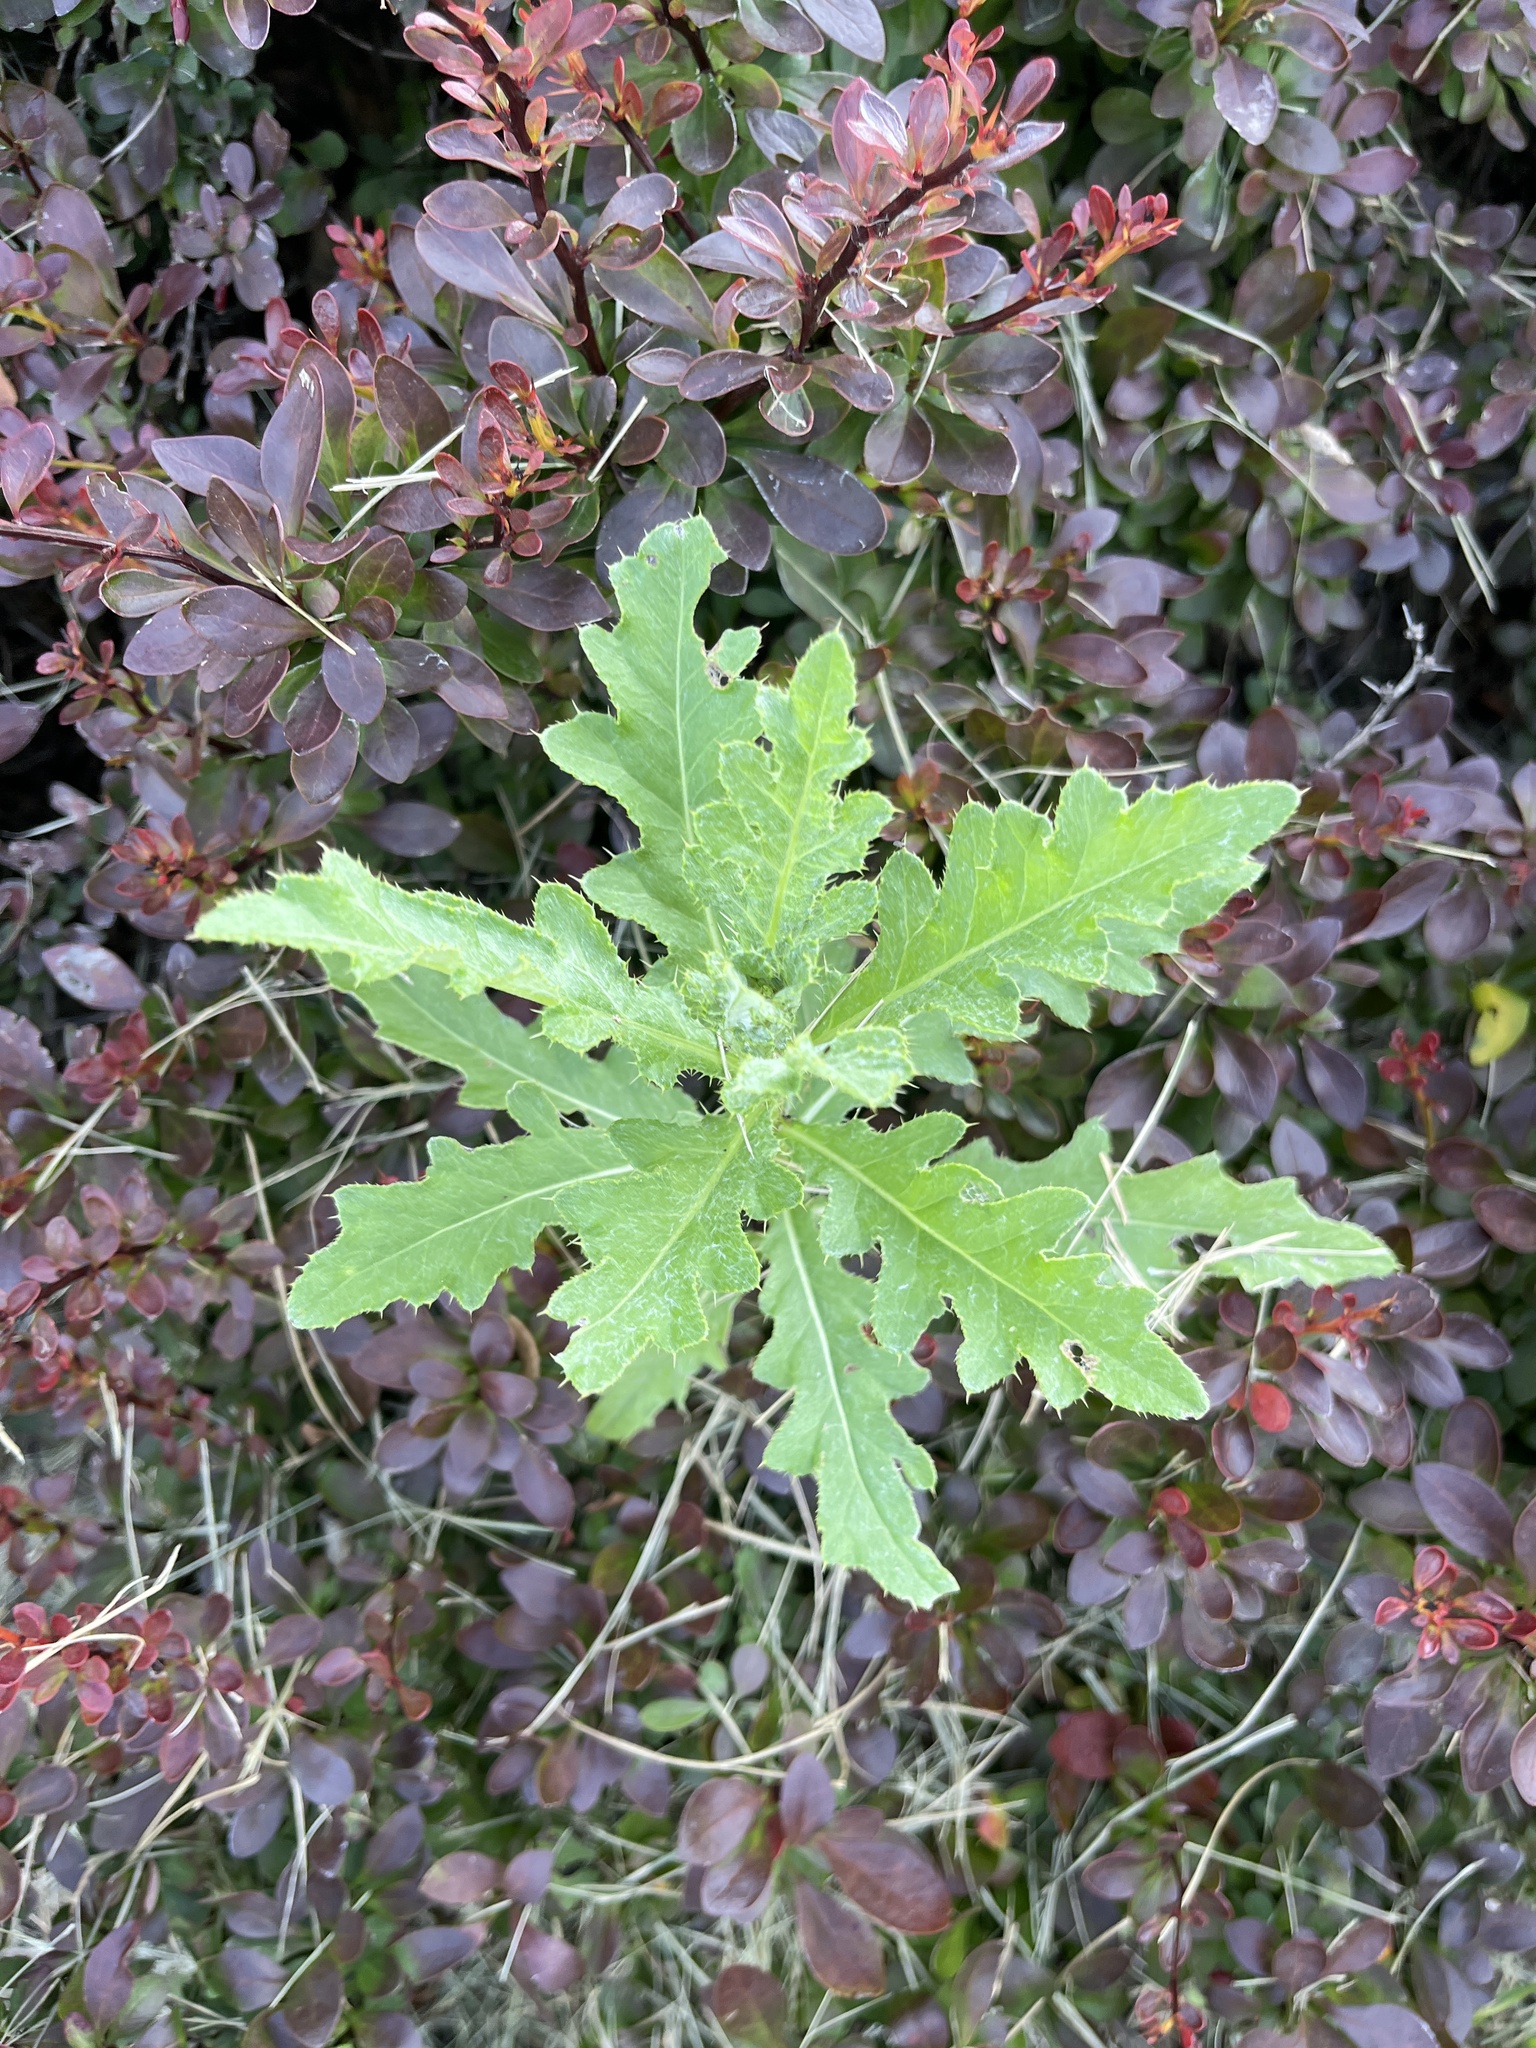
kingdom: Plantae
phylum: Tracheophyta
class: Magnoliopsida
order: Asterales
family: Asteraceae
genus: Cirsium
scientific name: Cirsium arvense
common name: Creeping thistle
